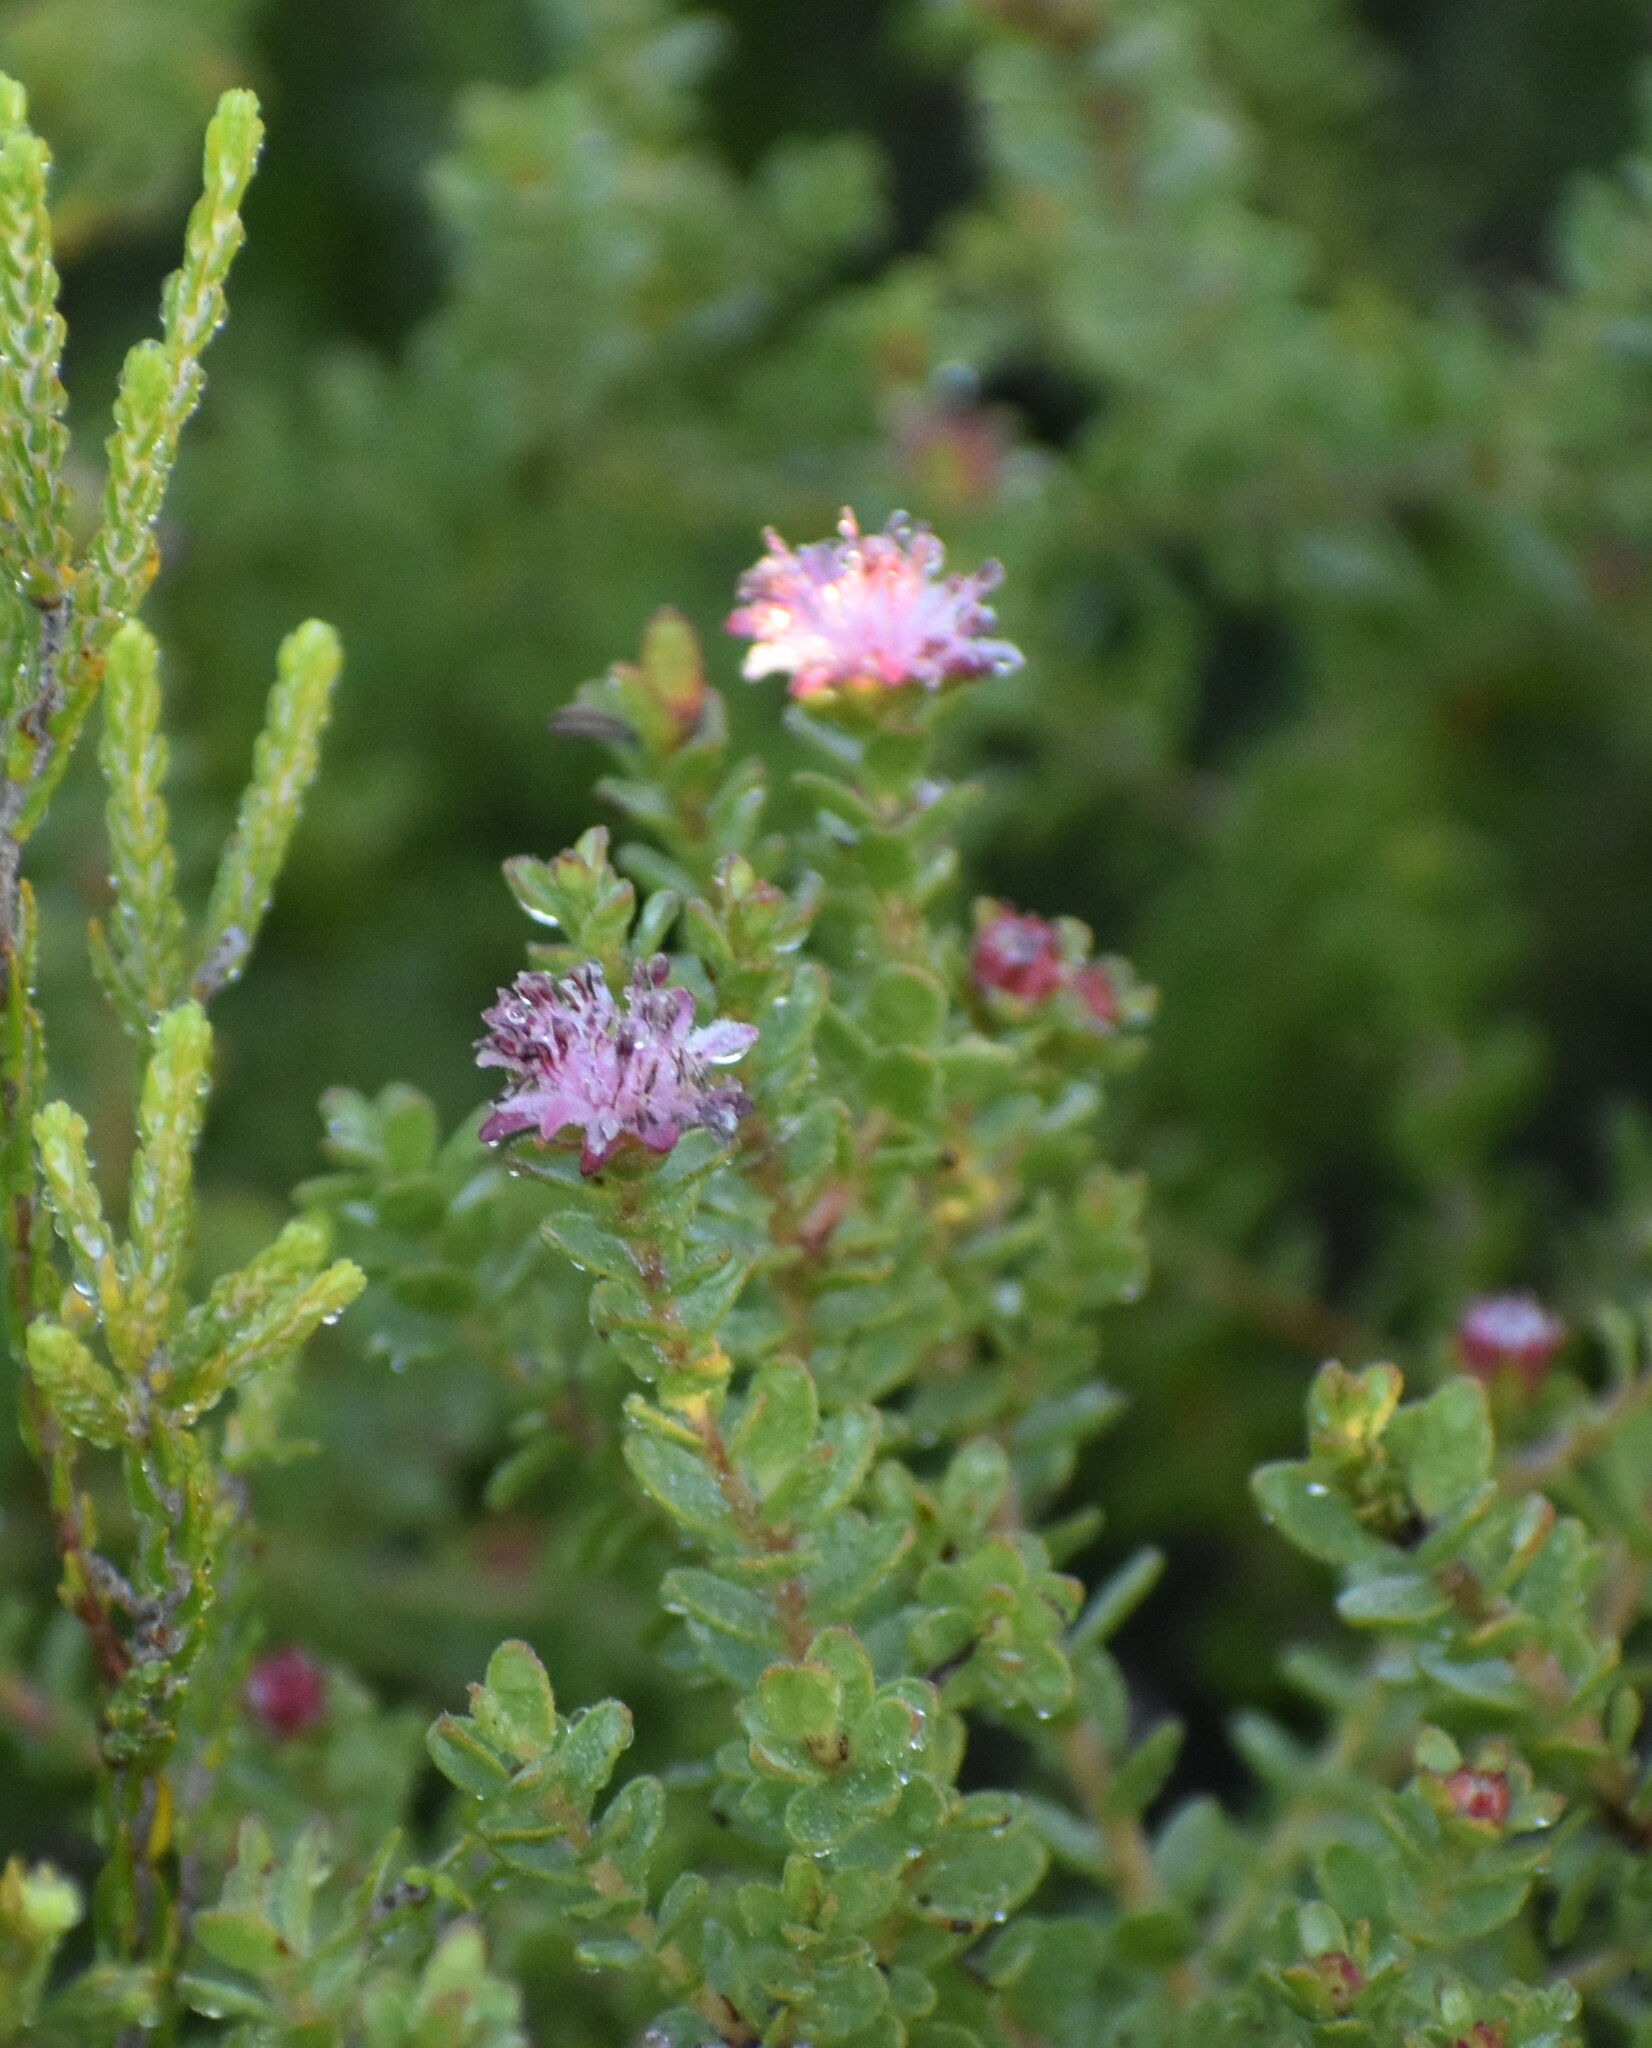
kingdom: Plantae
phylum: Tracheophyta
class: Magnoliopsida
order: Proteales
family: Proteaceae
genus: Diastella
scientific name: Diastella divaricata
